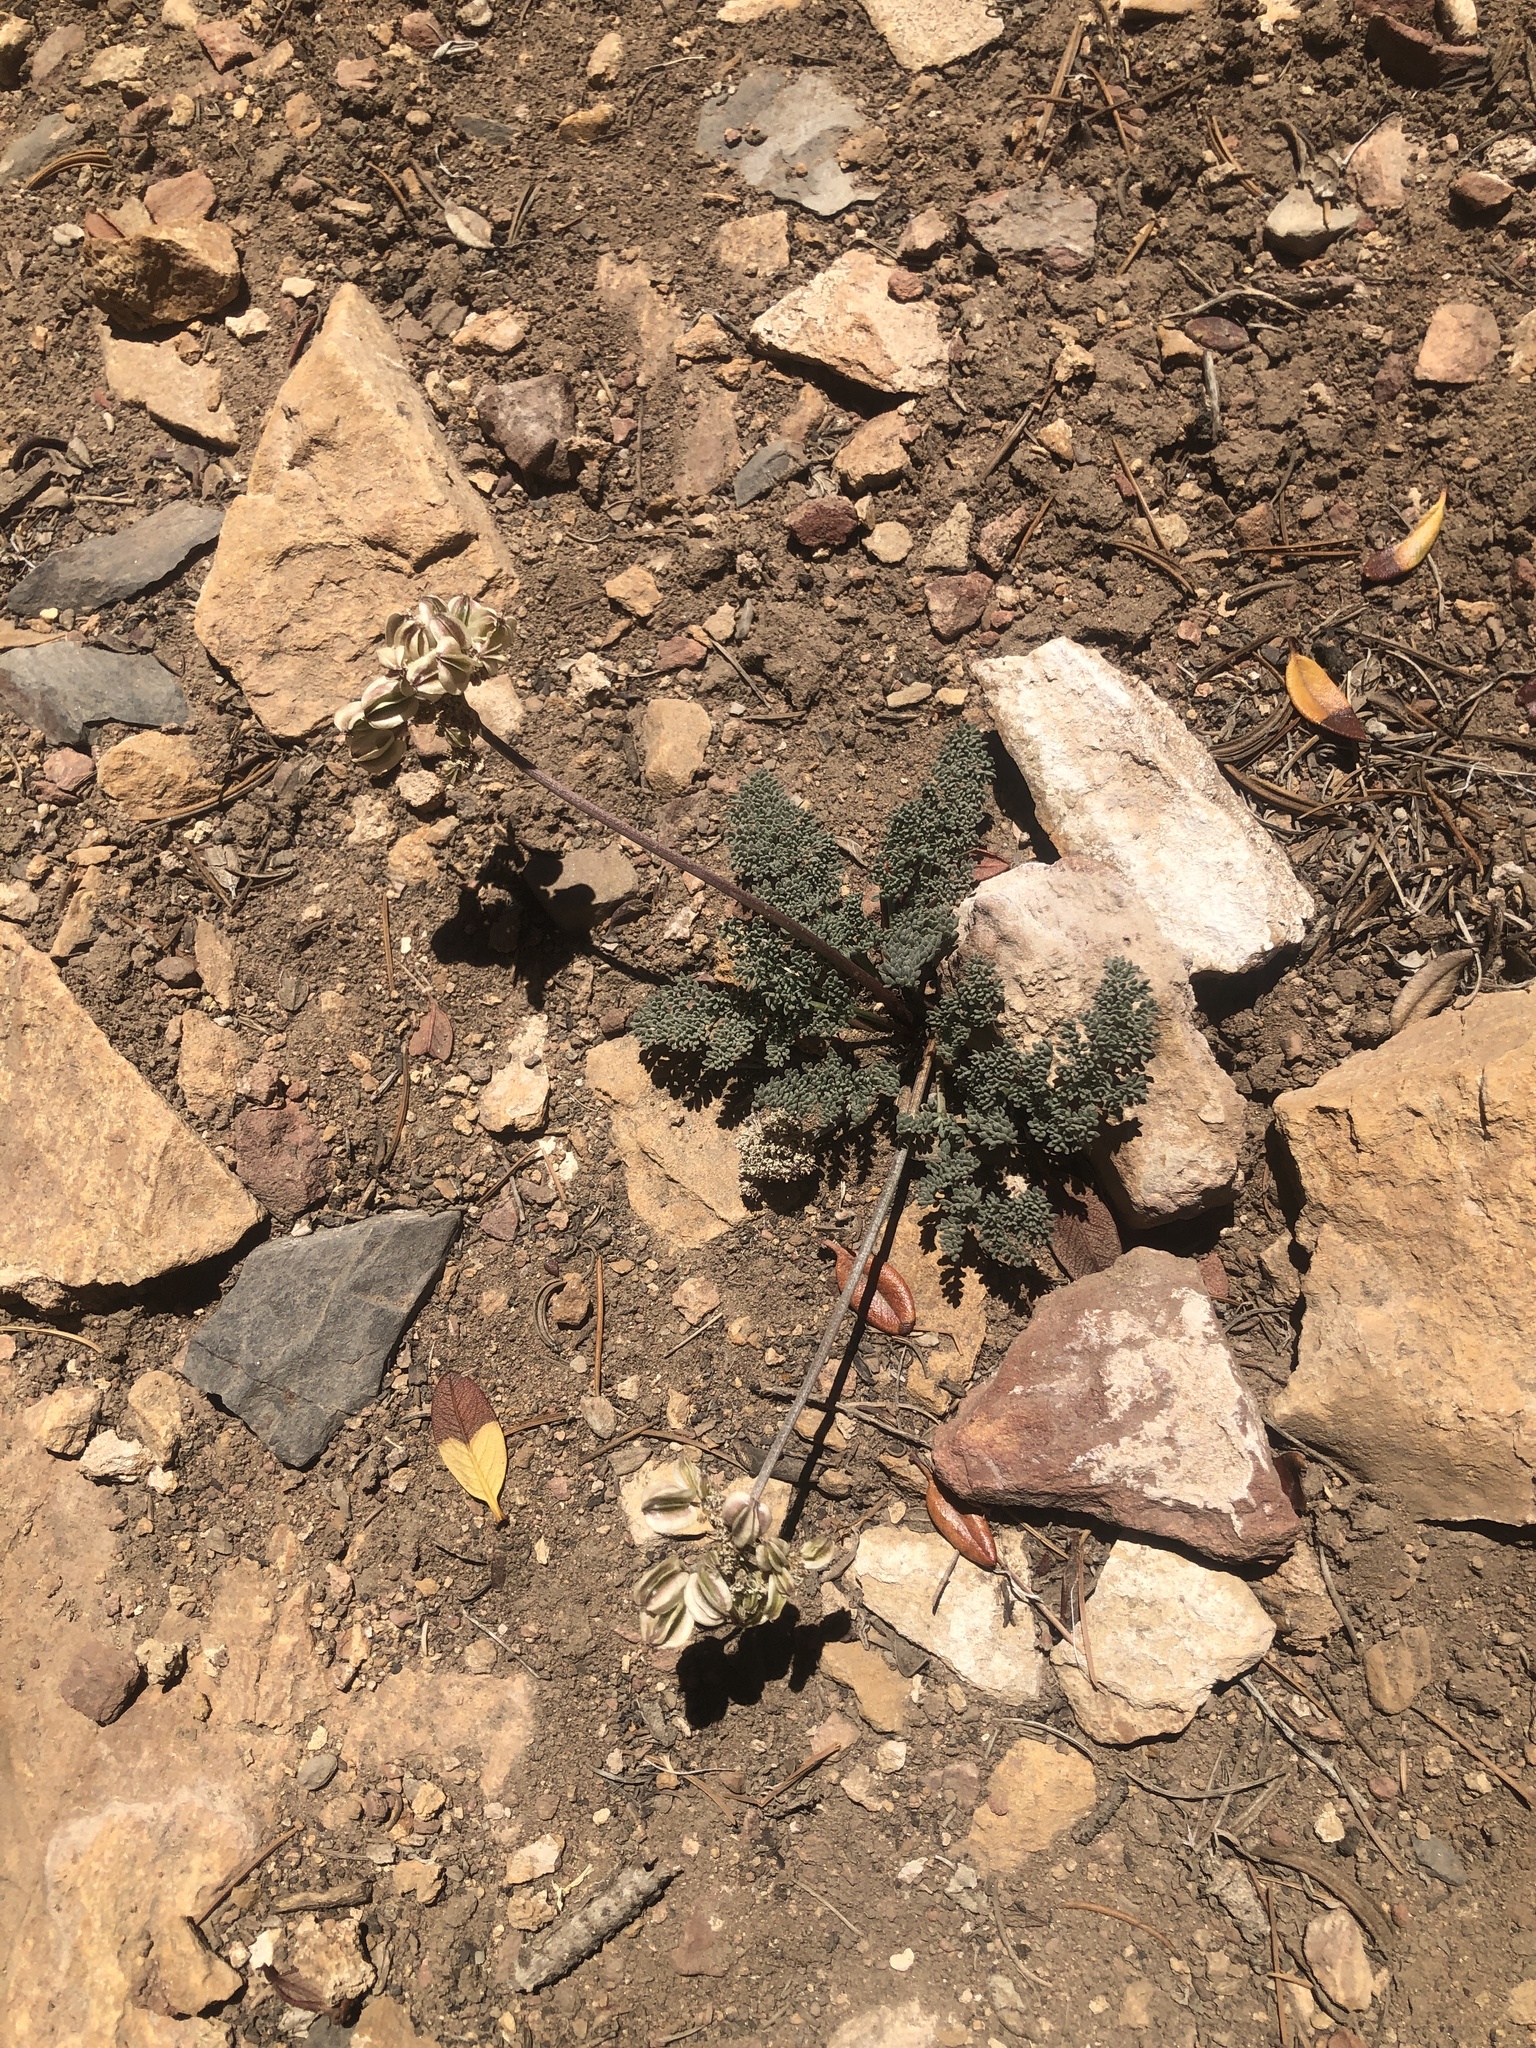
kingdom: Plantae
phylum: Tracheophyta
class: Magnoliopsida
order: Apiales
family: Apiaceae
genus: Aulospermum
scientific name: Aulospermum aboriginum
